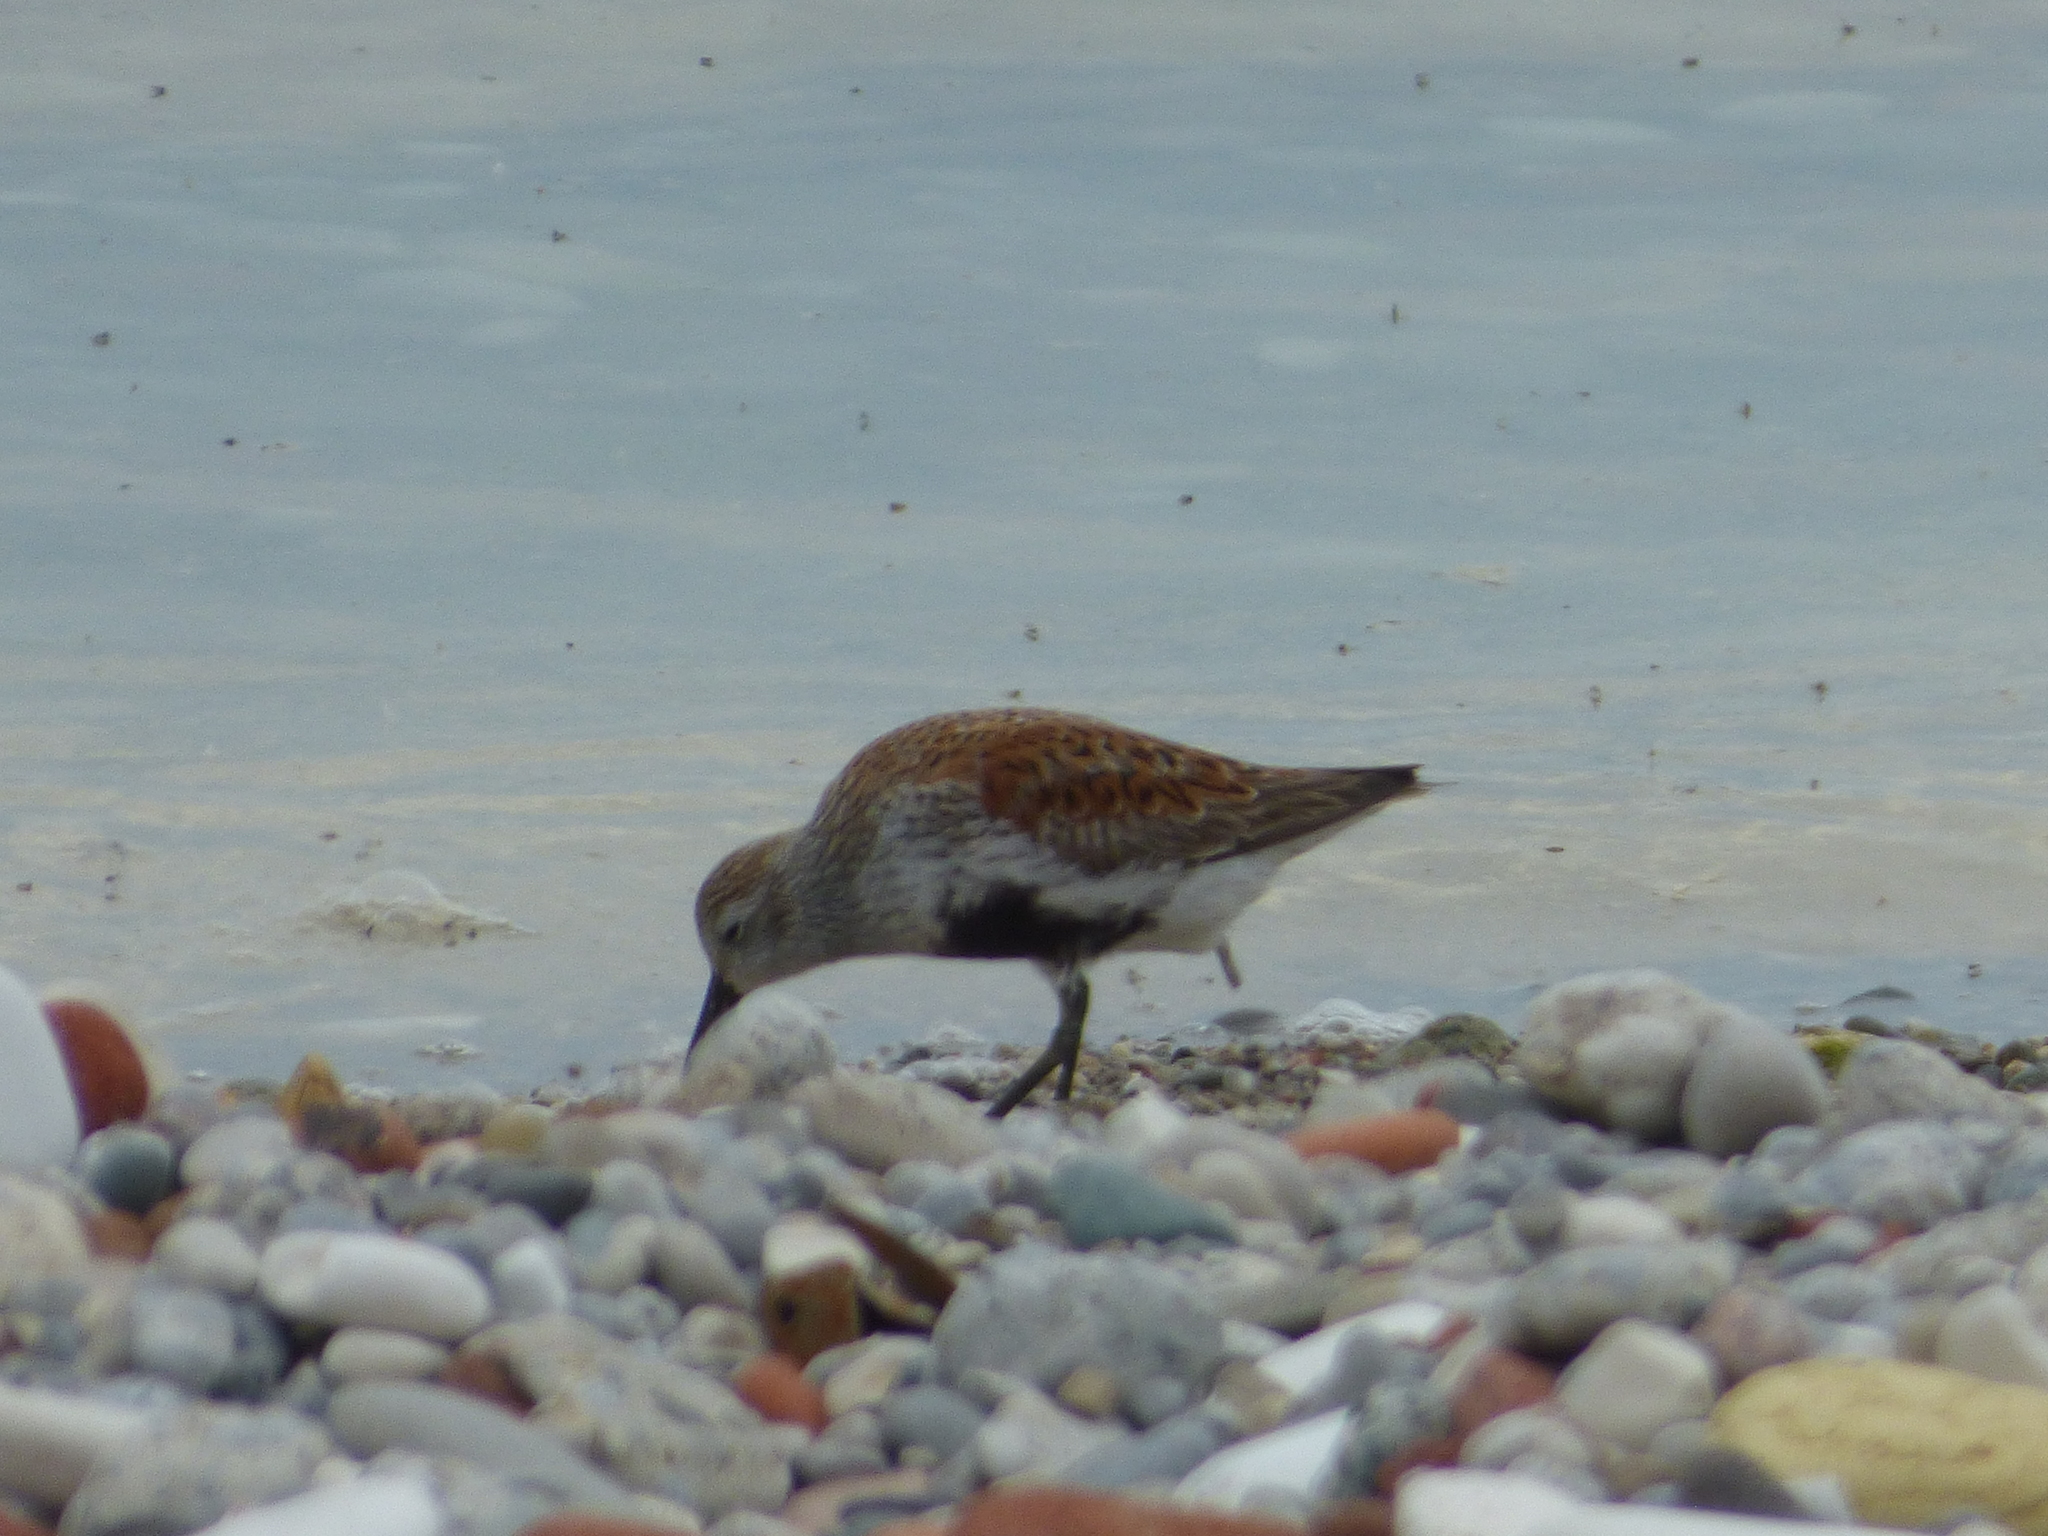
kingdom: Animalia
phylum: Chordata
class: Aves
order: Charadriiformes
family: Scolopacidae
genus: Calidris
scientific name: Calidris alpina
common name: Dunlin
